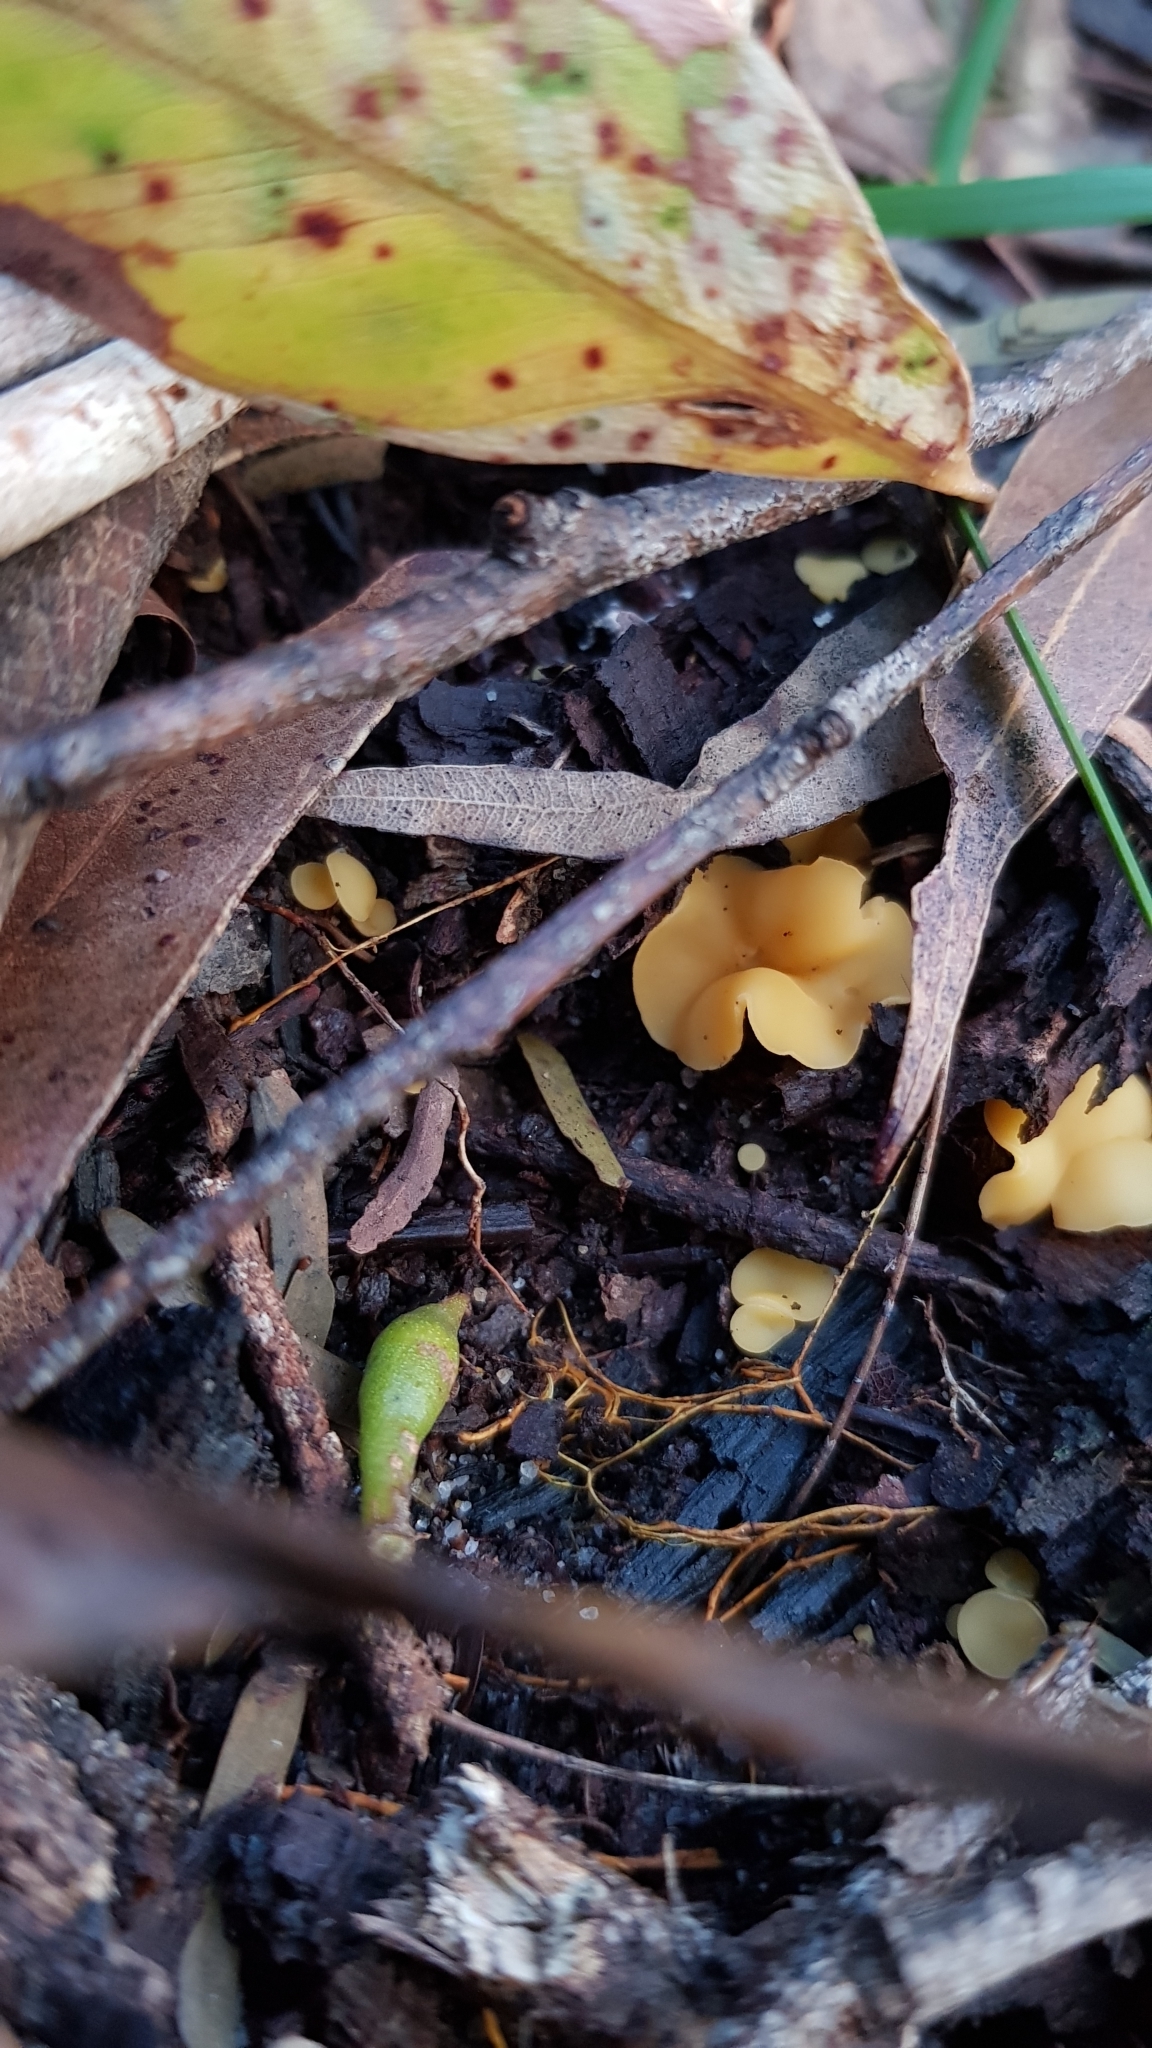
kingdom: Fungi
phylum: Ascomycota
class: Leotiomycetes
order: Helotiales
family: Helotiaceae
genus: Phaeohelotium
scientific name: Phaeohelotium baileyanum
